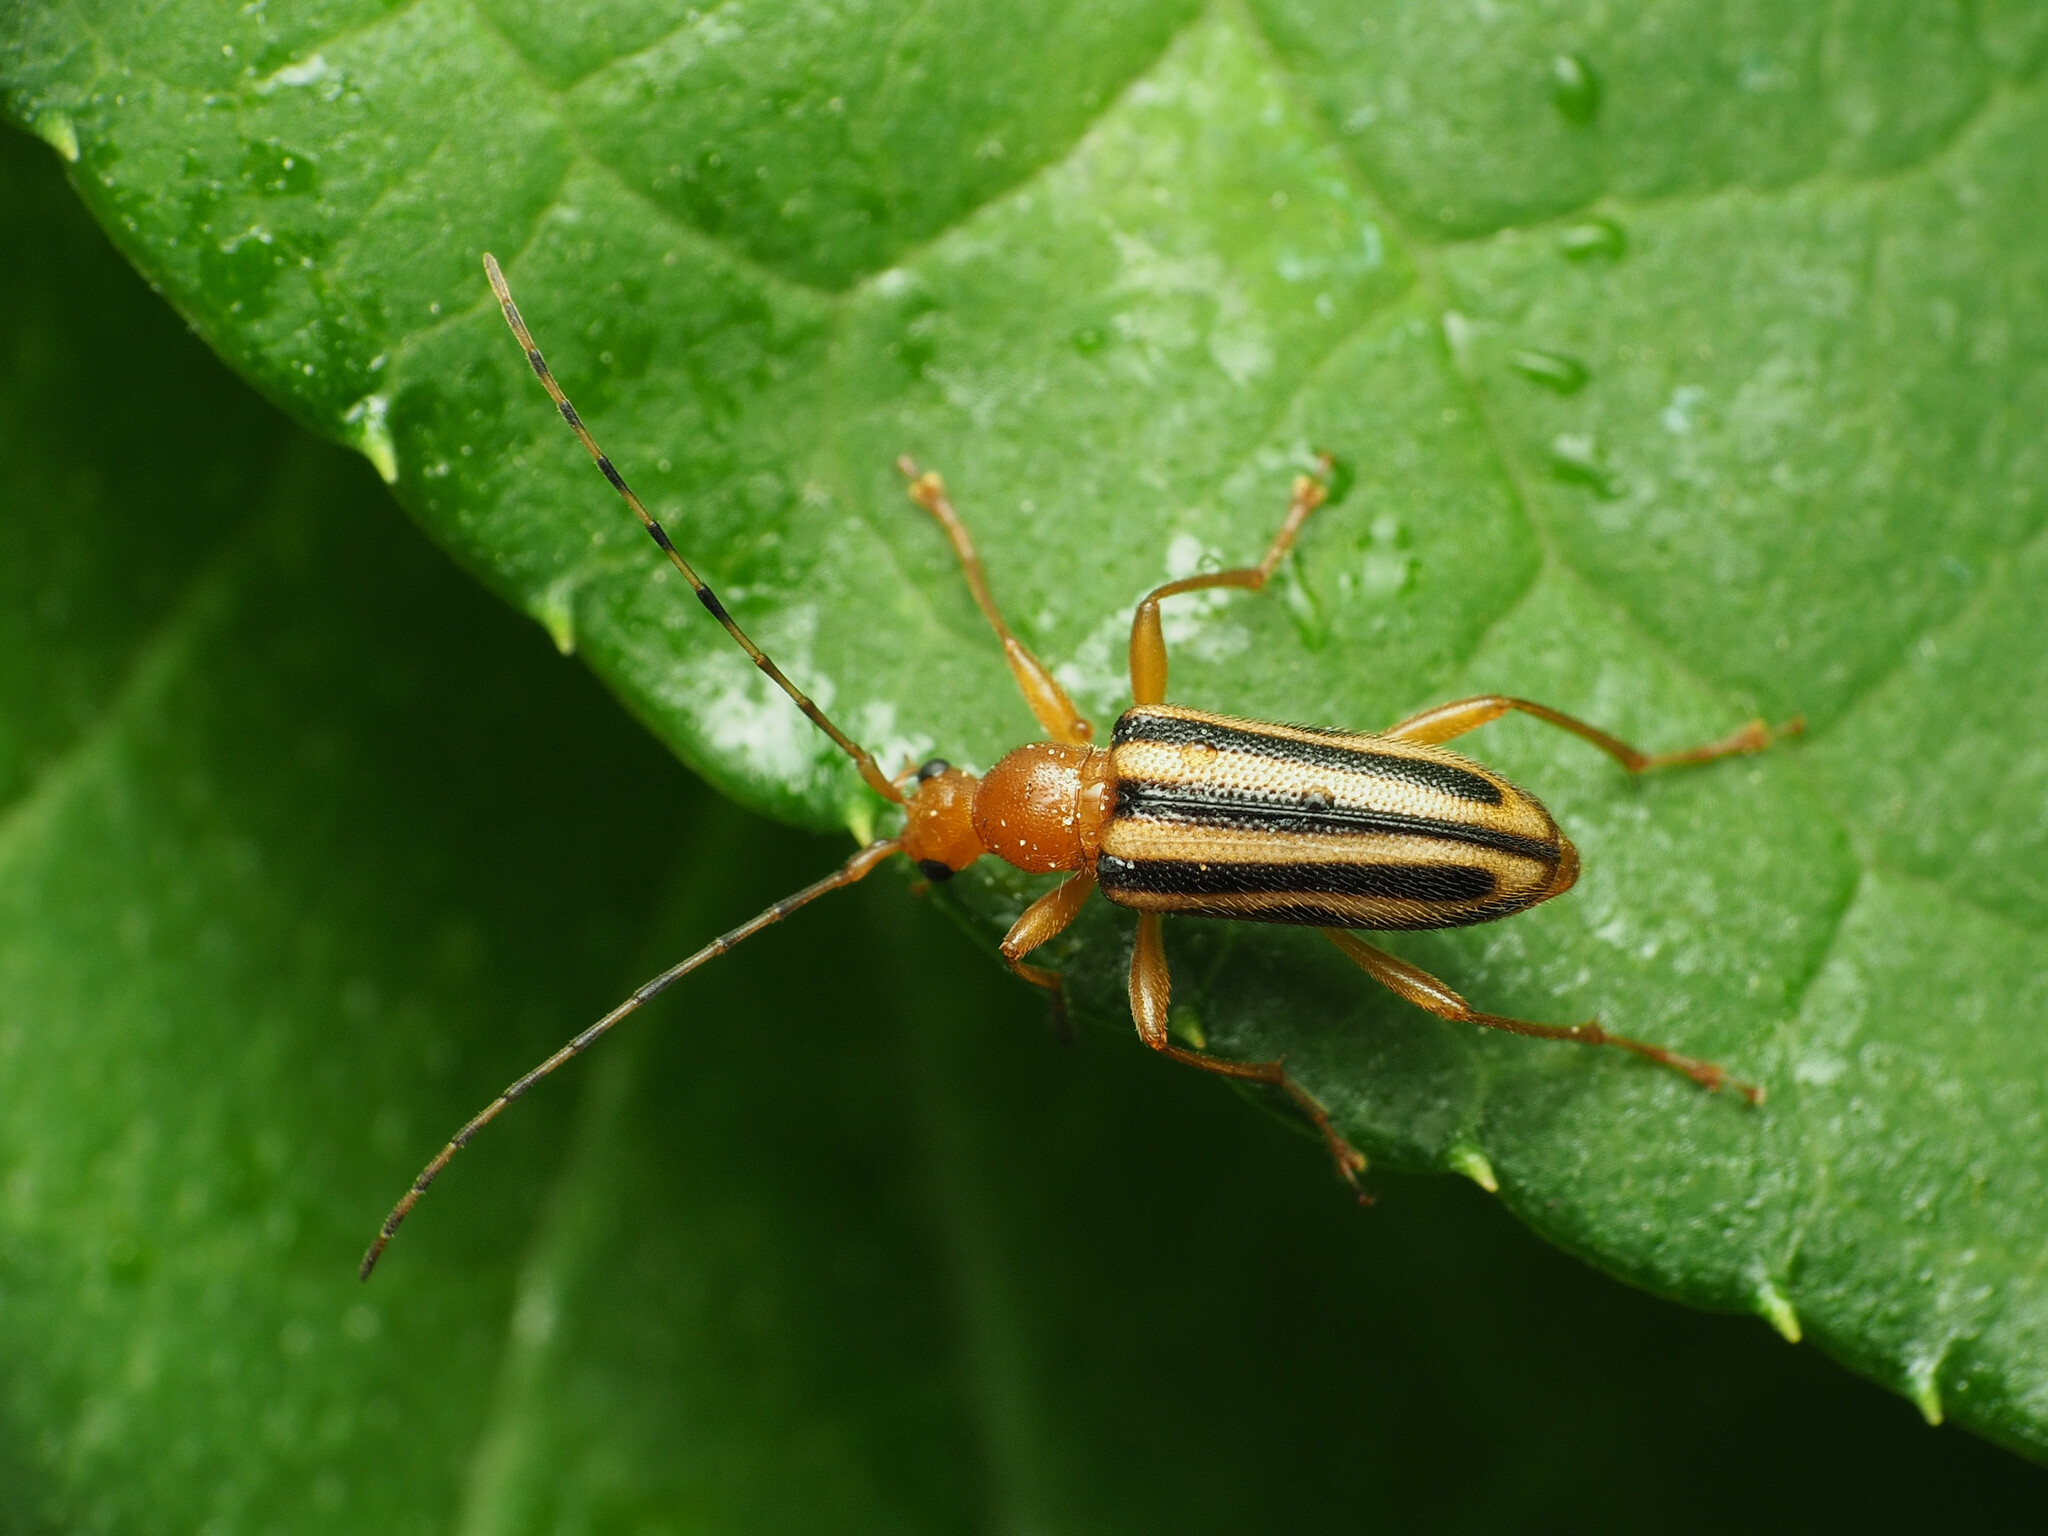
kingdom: Animalia
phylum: Arthropoda
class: Insecta
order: Coleoptera
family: Cerambycidae
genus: Metacmaeops
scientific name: Metacmaeops vittata
